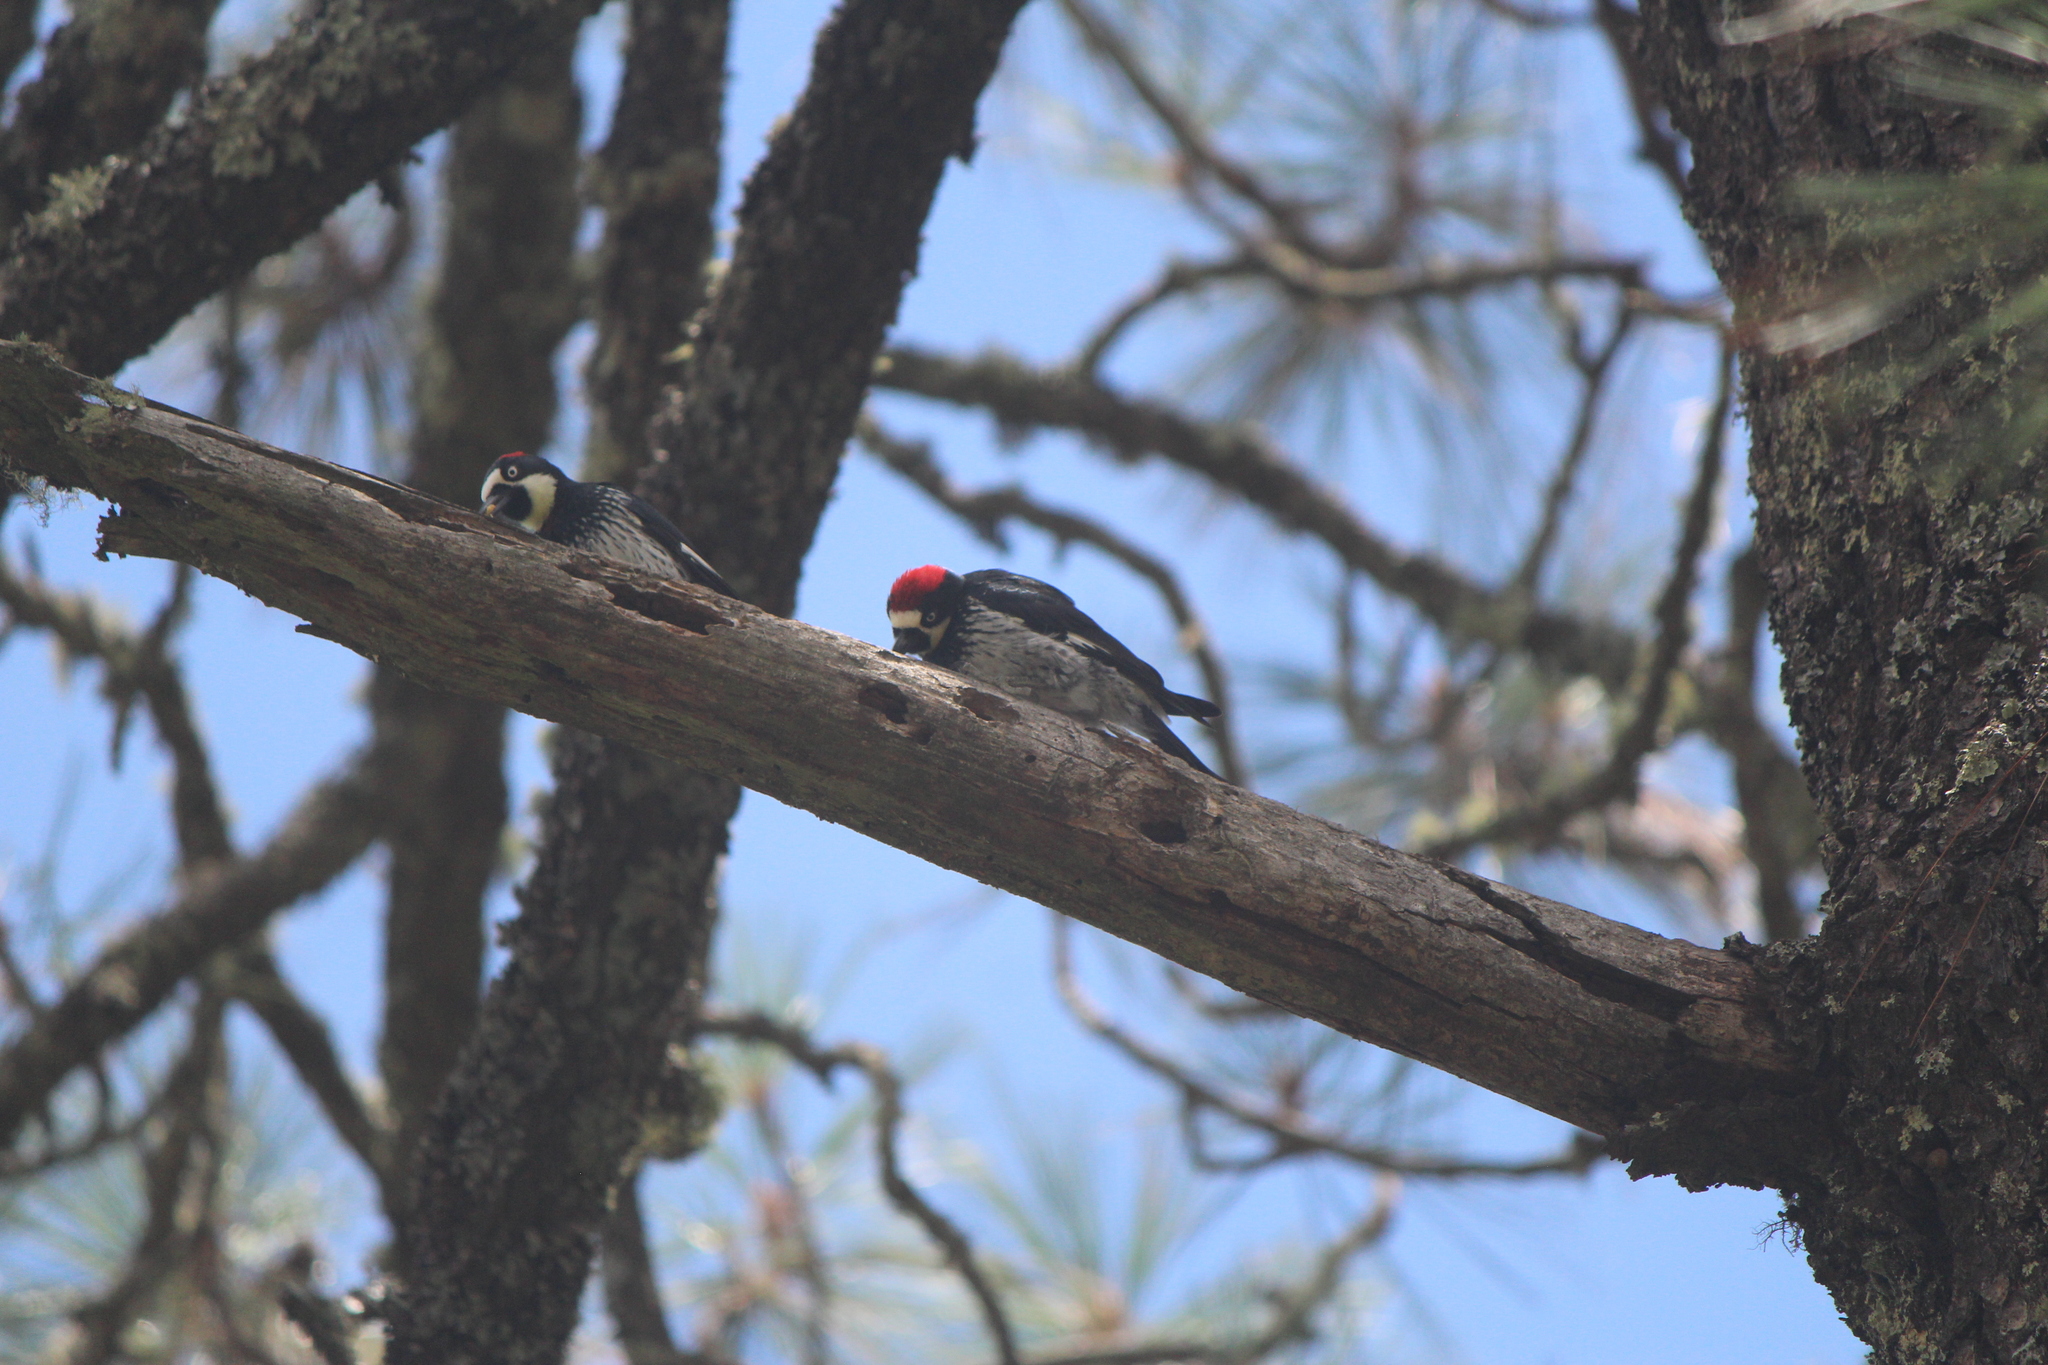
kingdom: Animalia
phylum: Chordata
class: Aves
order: Piciformes
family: Picidae
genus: Melanerpes
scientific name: Melanerpes formicivorus
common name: Acorn woodpecker
